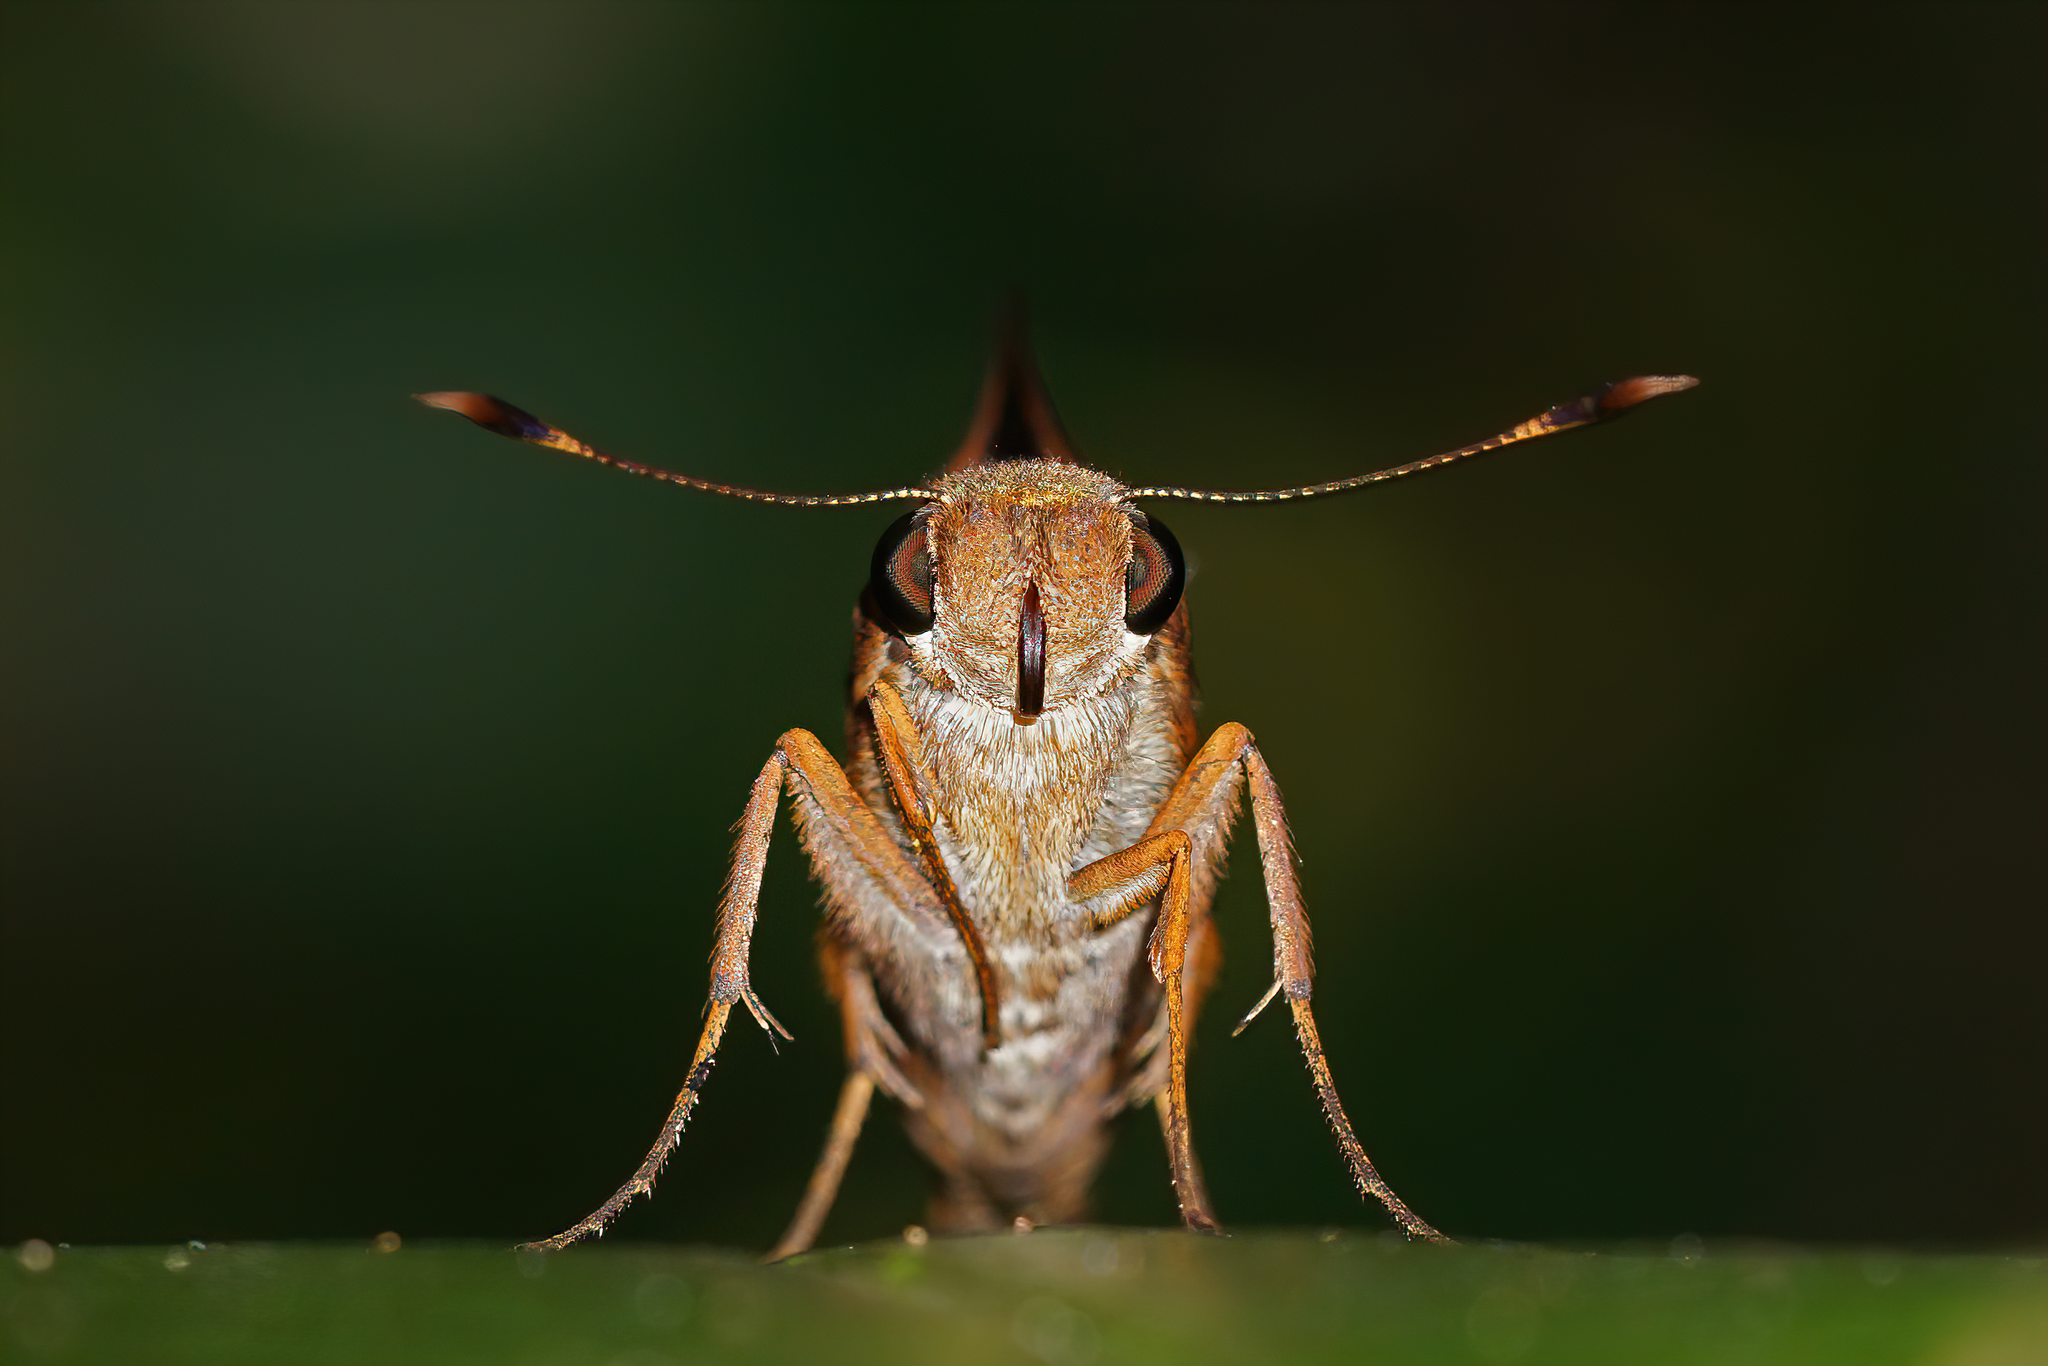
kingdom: Animalia
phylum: Arthropoda
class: Insecta
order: Lepidoptera
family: Hesperiidae
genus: Asbolis
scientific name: Asbolis capucinus
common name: Monk skipper
